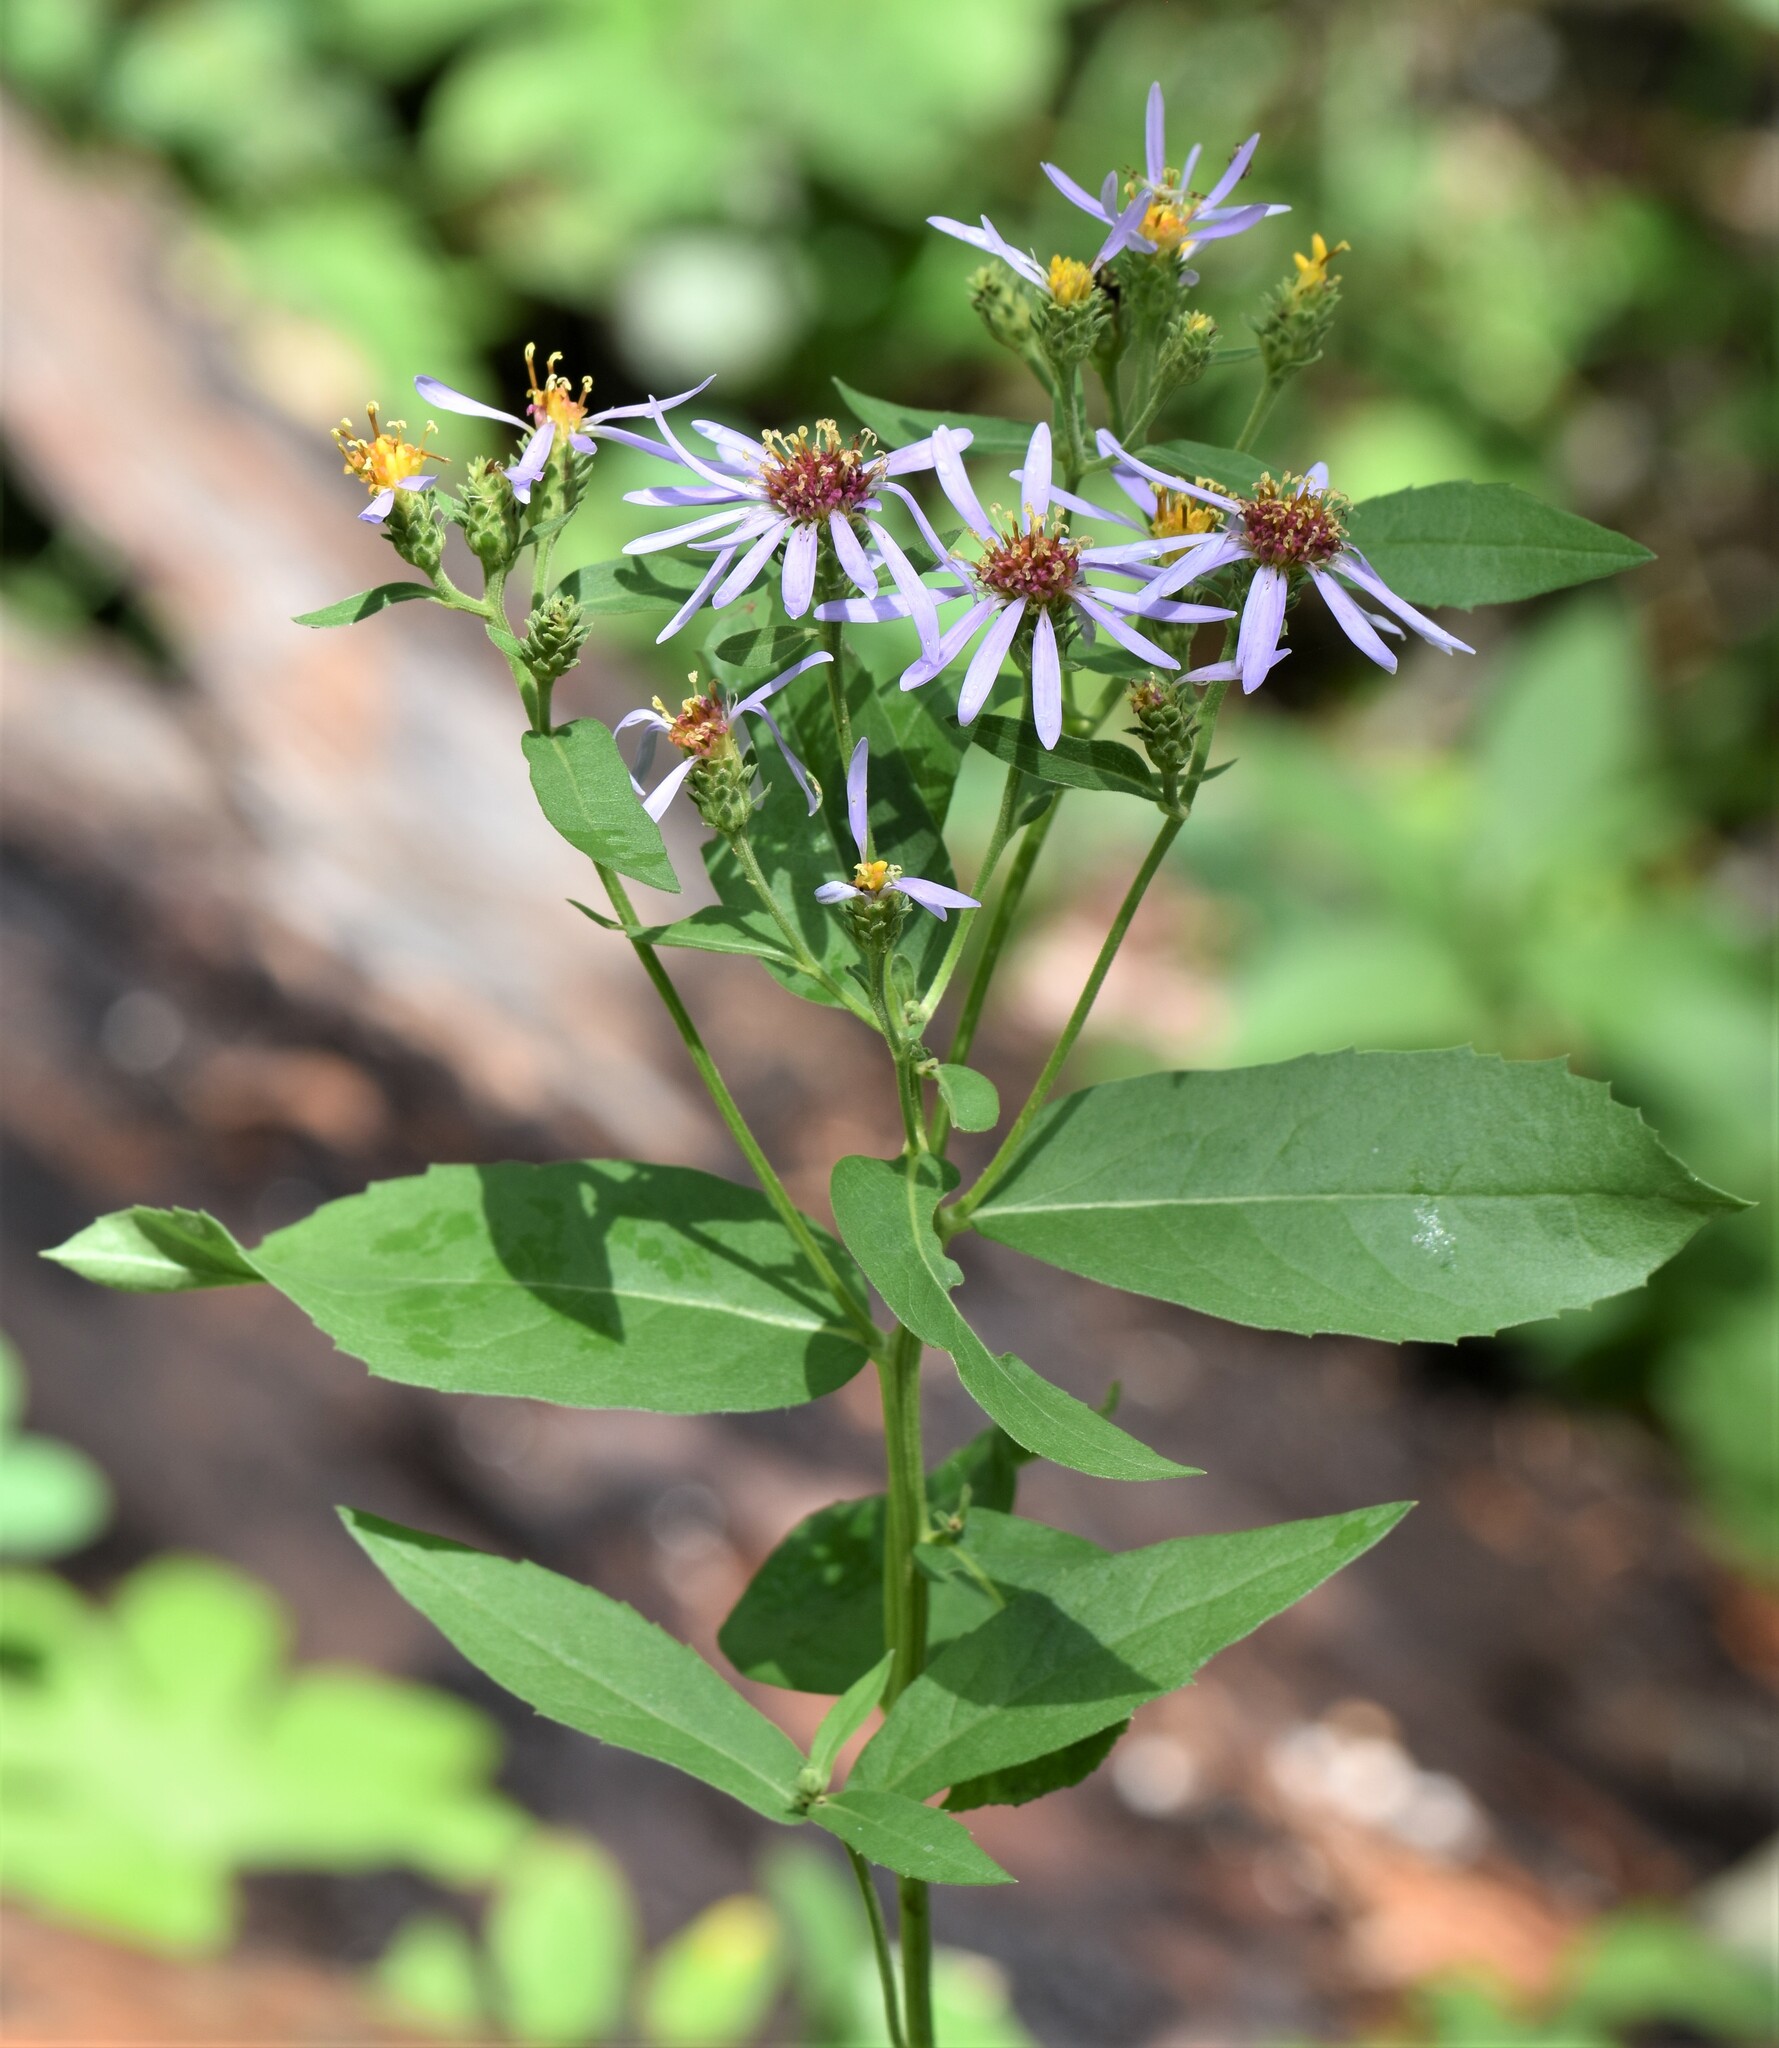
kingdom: Plantae
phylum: Tracheophyta
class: Magnoliopsida
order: Asterales
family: Asteraceae
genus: Eurybia
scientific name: Eurybia conspicua
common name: Showy aster
